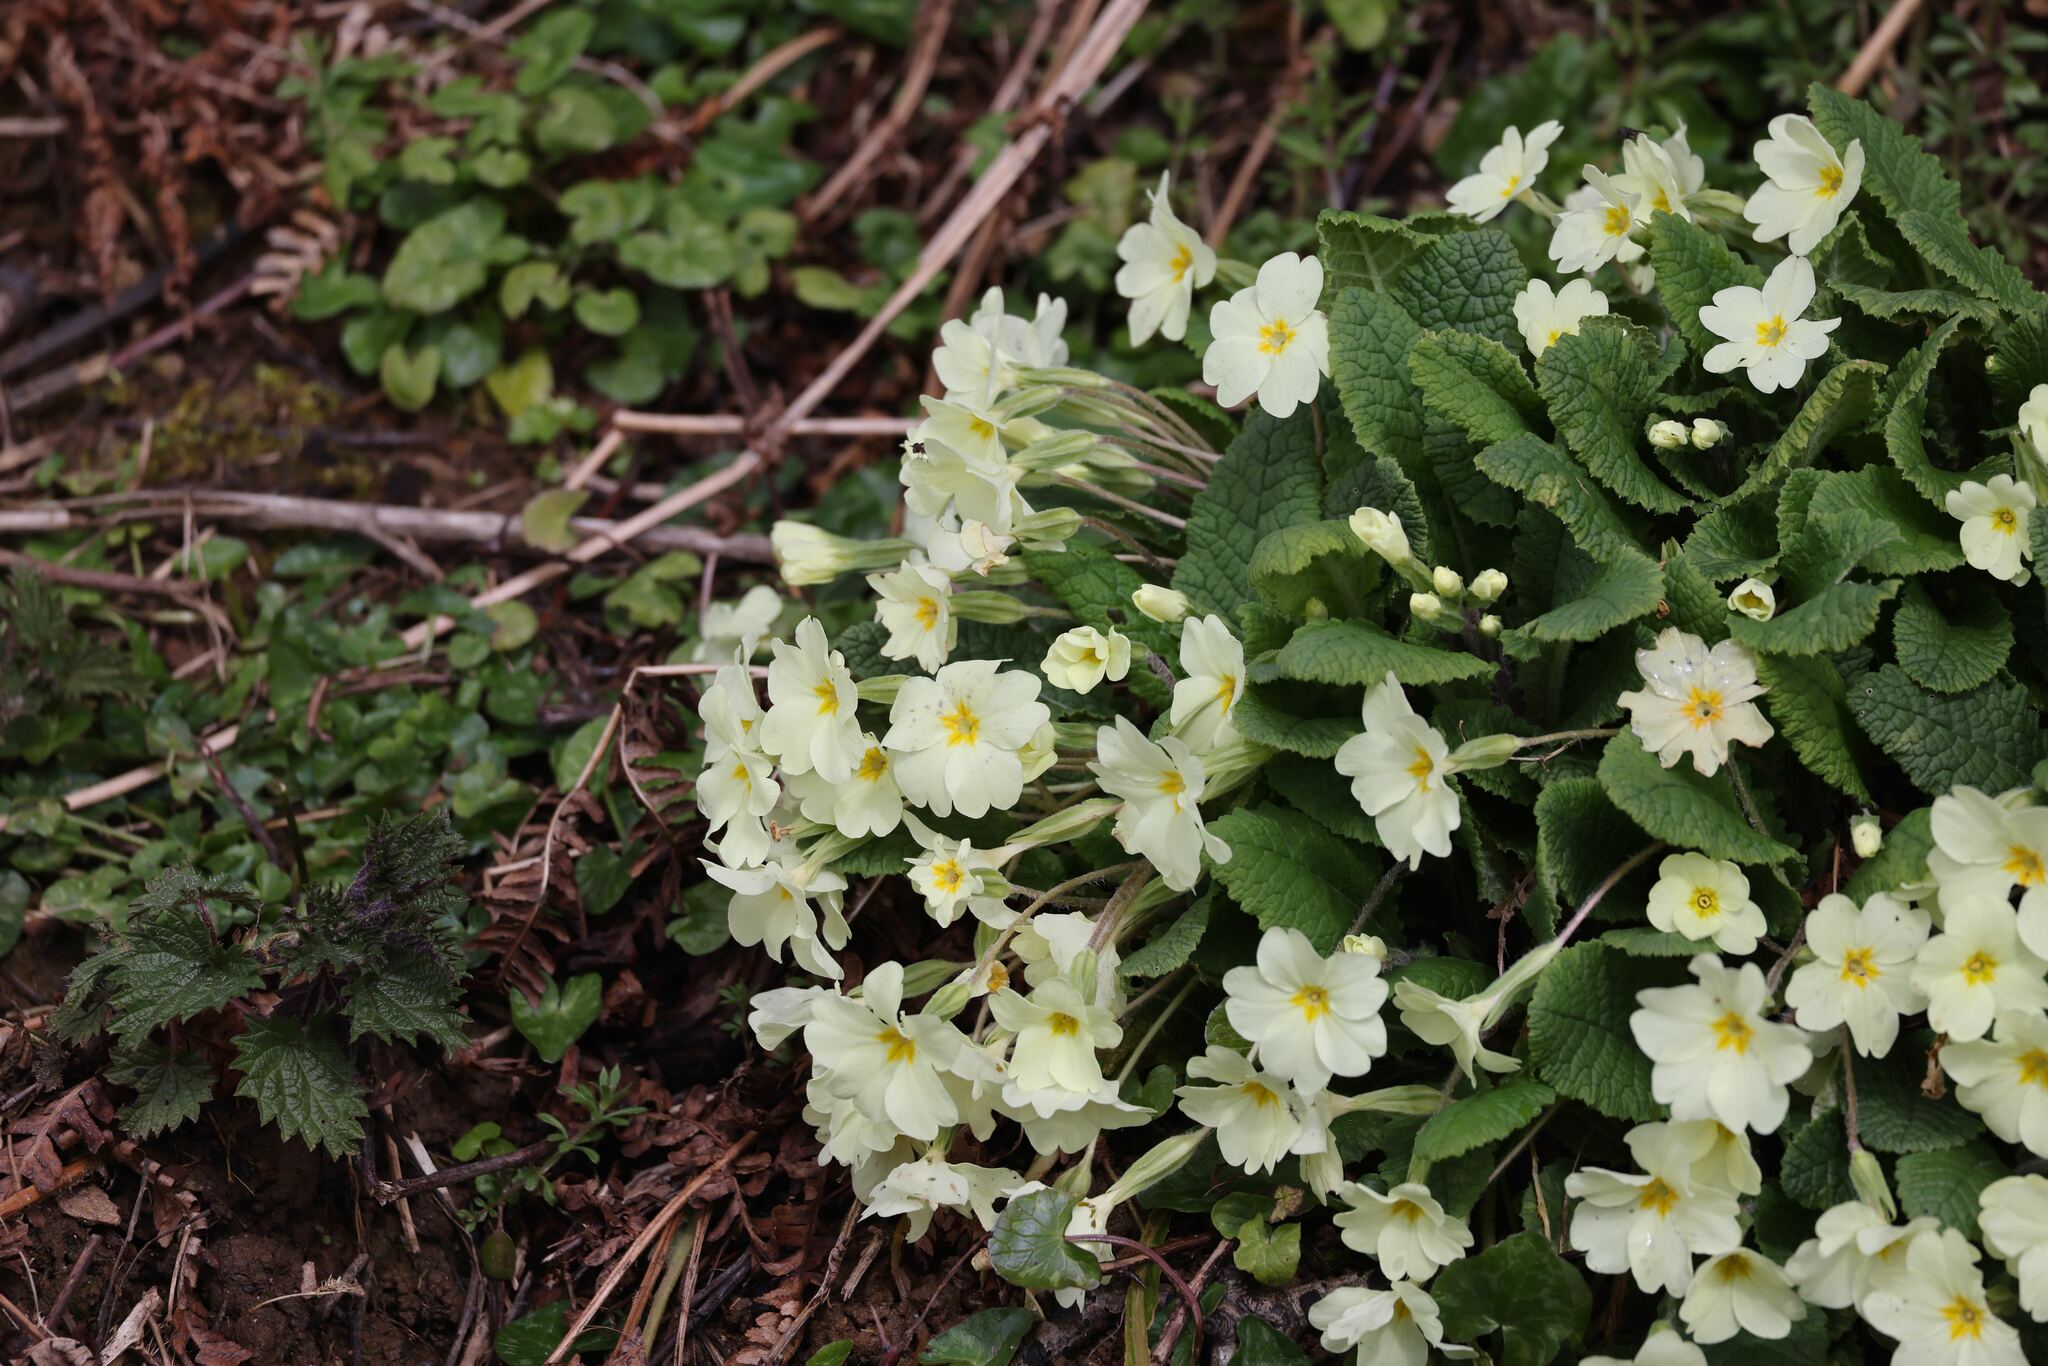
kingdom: Plantae
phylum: Tracheophyta
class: Magnoliopsida
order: Ericales
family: Primulaceae
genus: Primula
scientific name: Primula vulgaris
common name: Primrose
